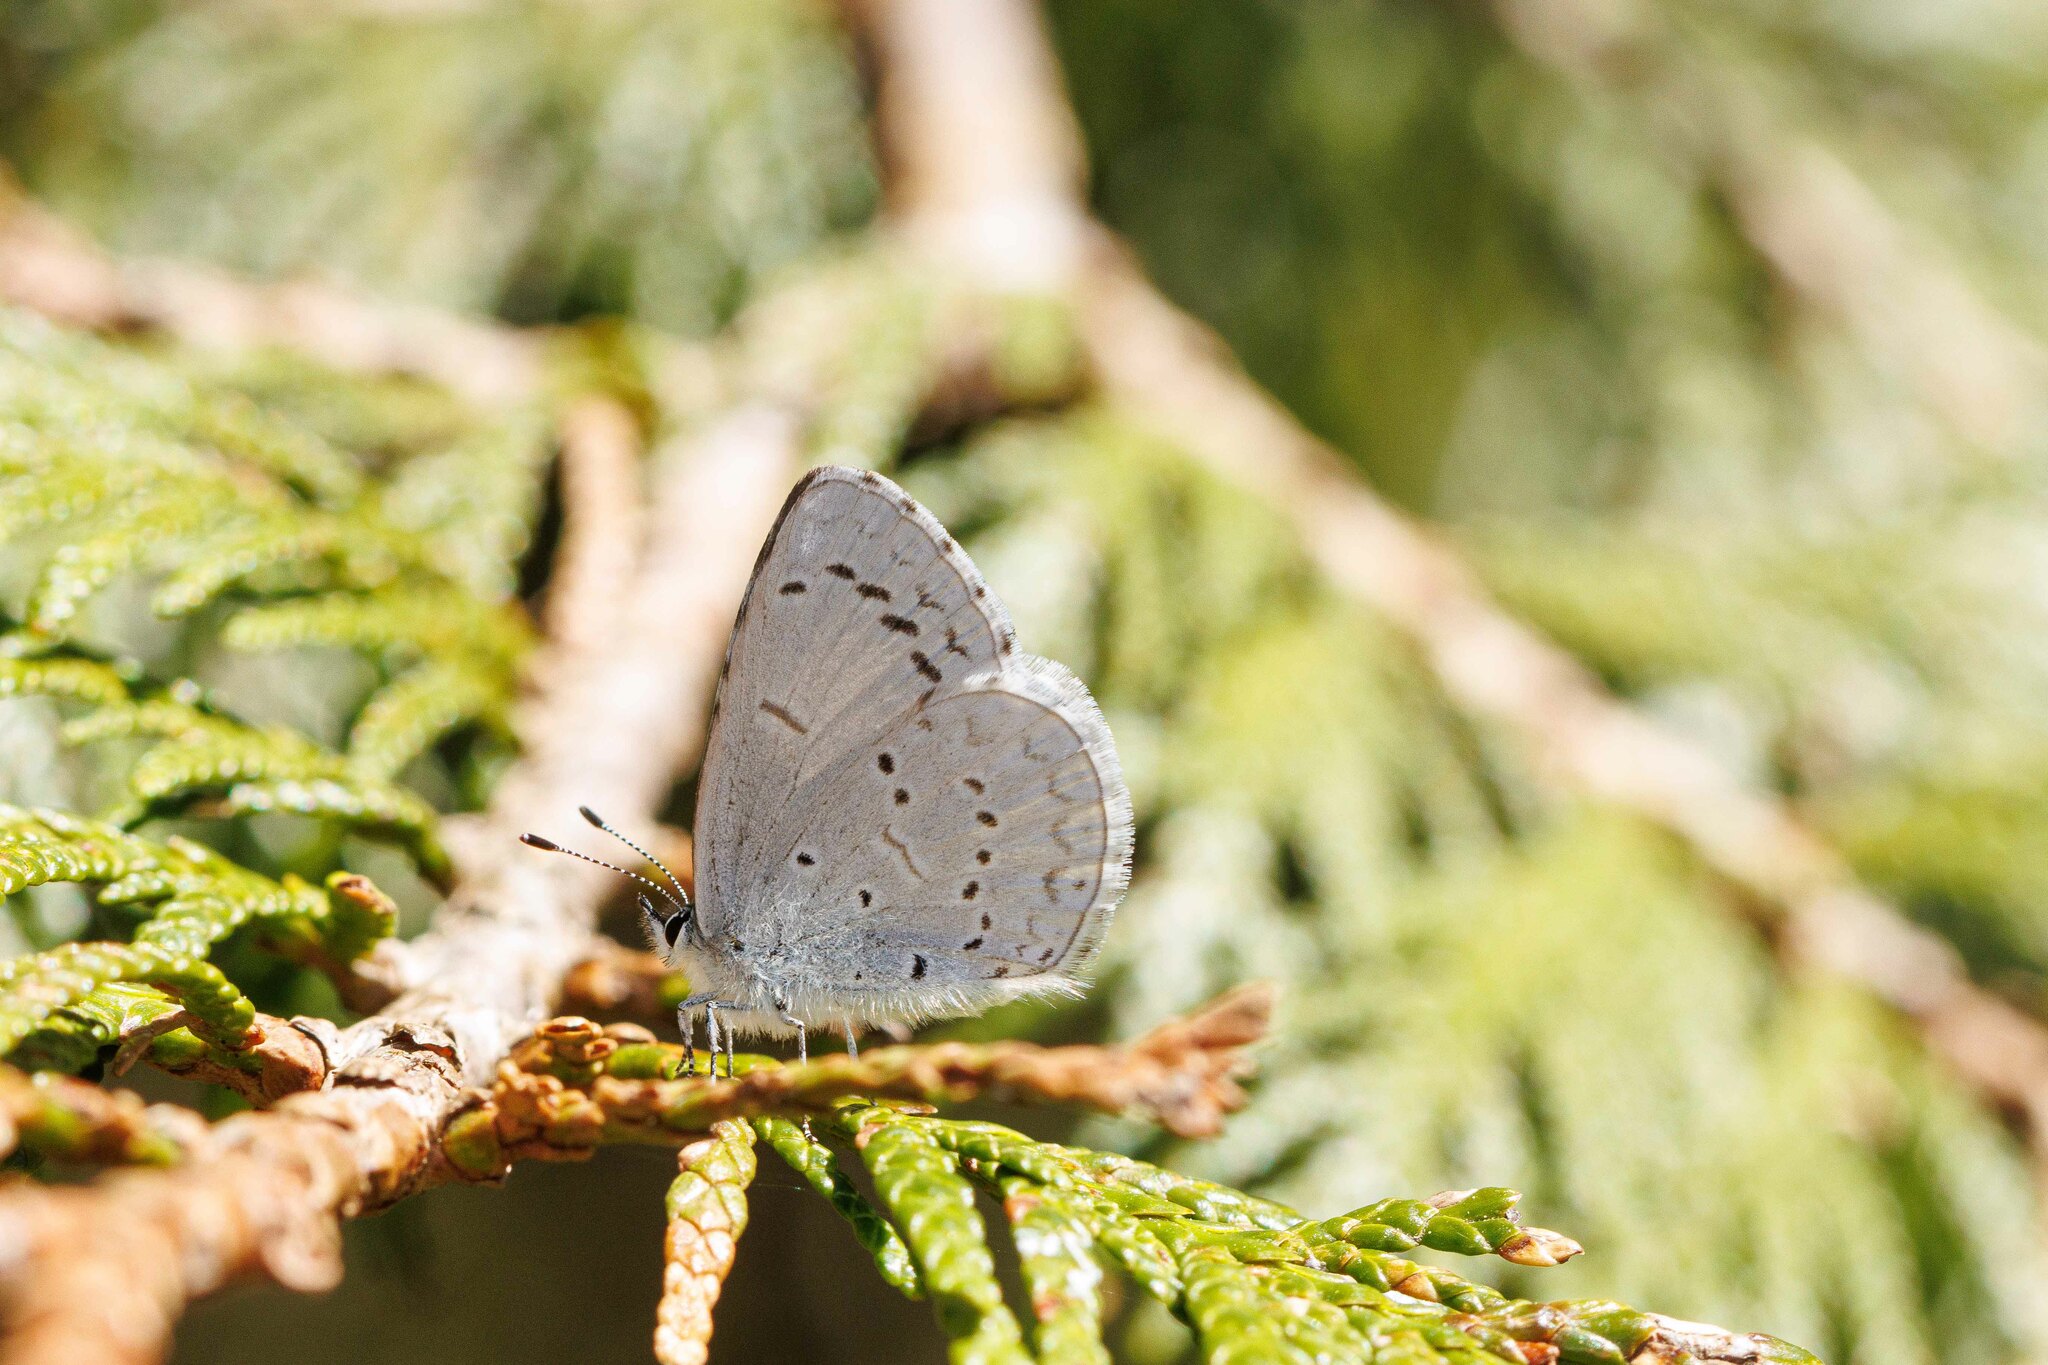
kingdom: Animalia
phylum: Arthropoda
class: Insecta
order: Lepidoptera
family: Lycaenidae
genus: Celastrina
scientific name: Celastrina ladon
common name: Spring azure
